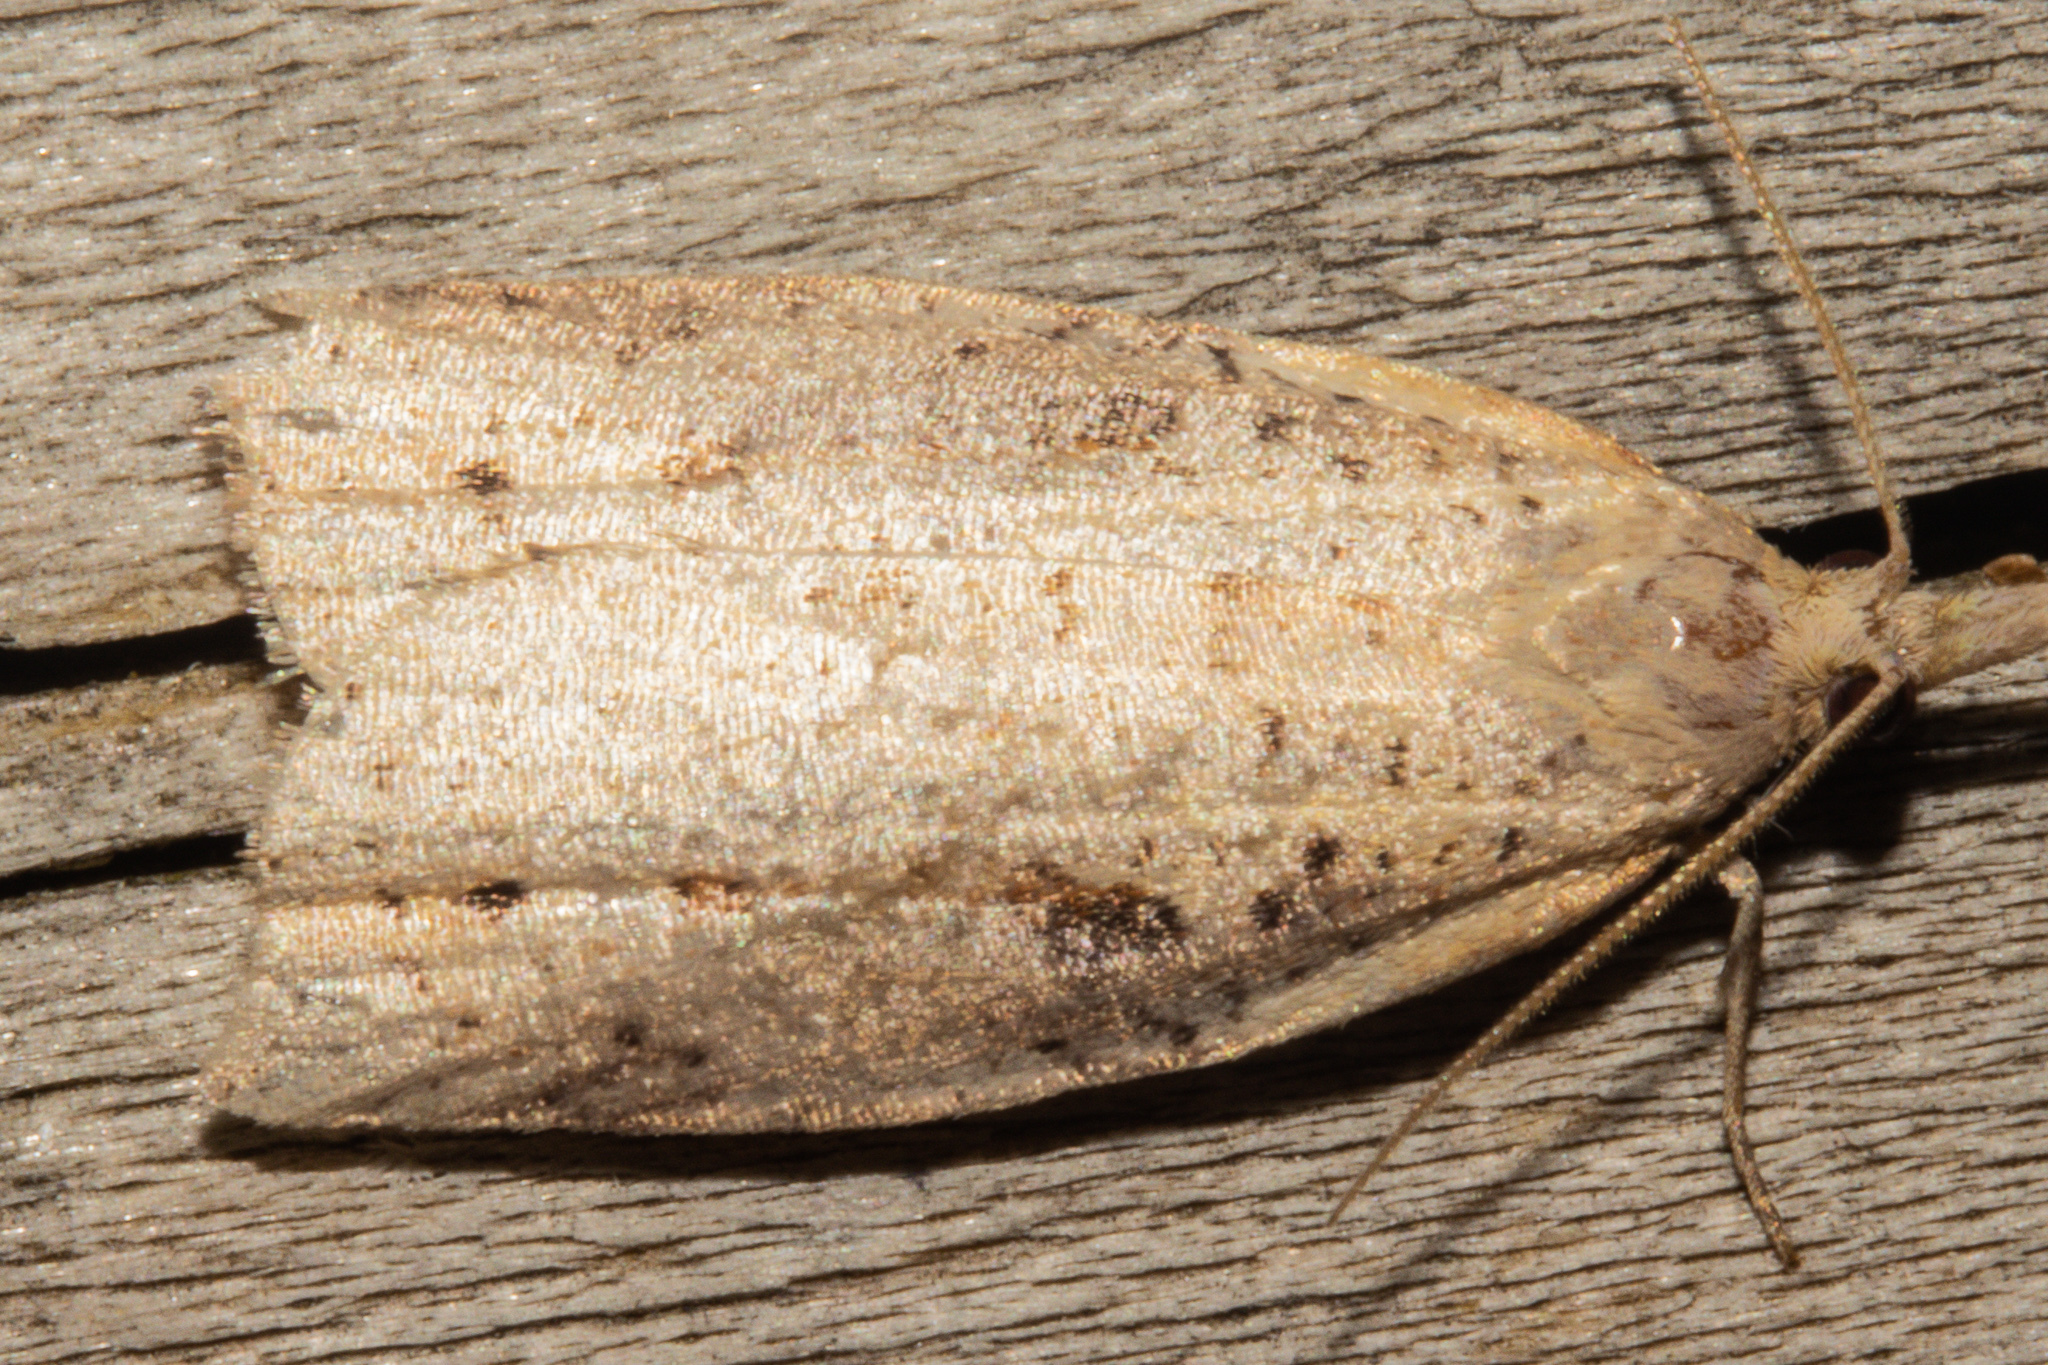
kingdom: Animalia
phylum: Arthropoda
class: Insecta
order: Lepidoptera
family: Tortricidae
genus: Apoctena
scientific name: Apoctena conditana
